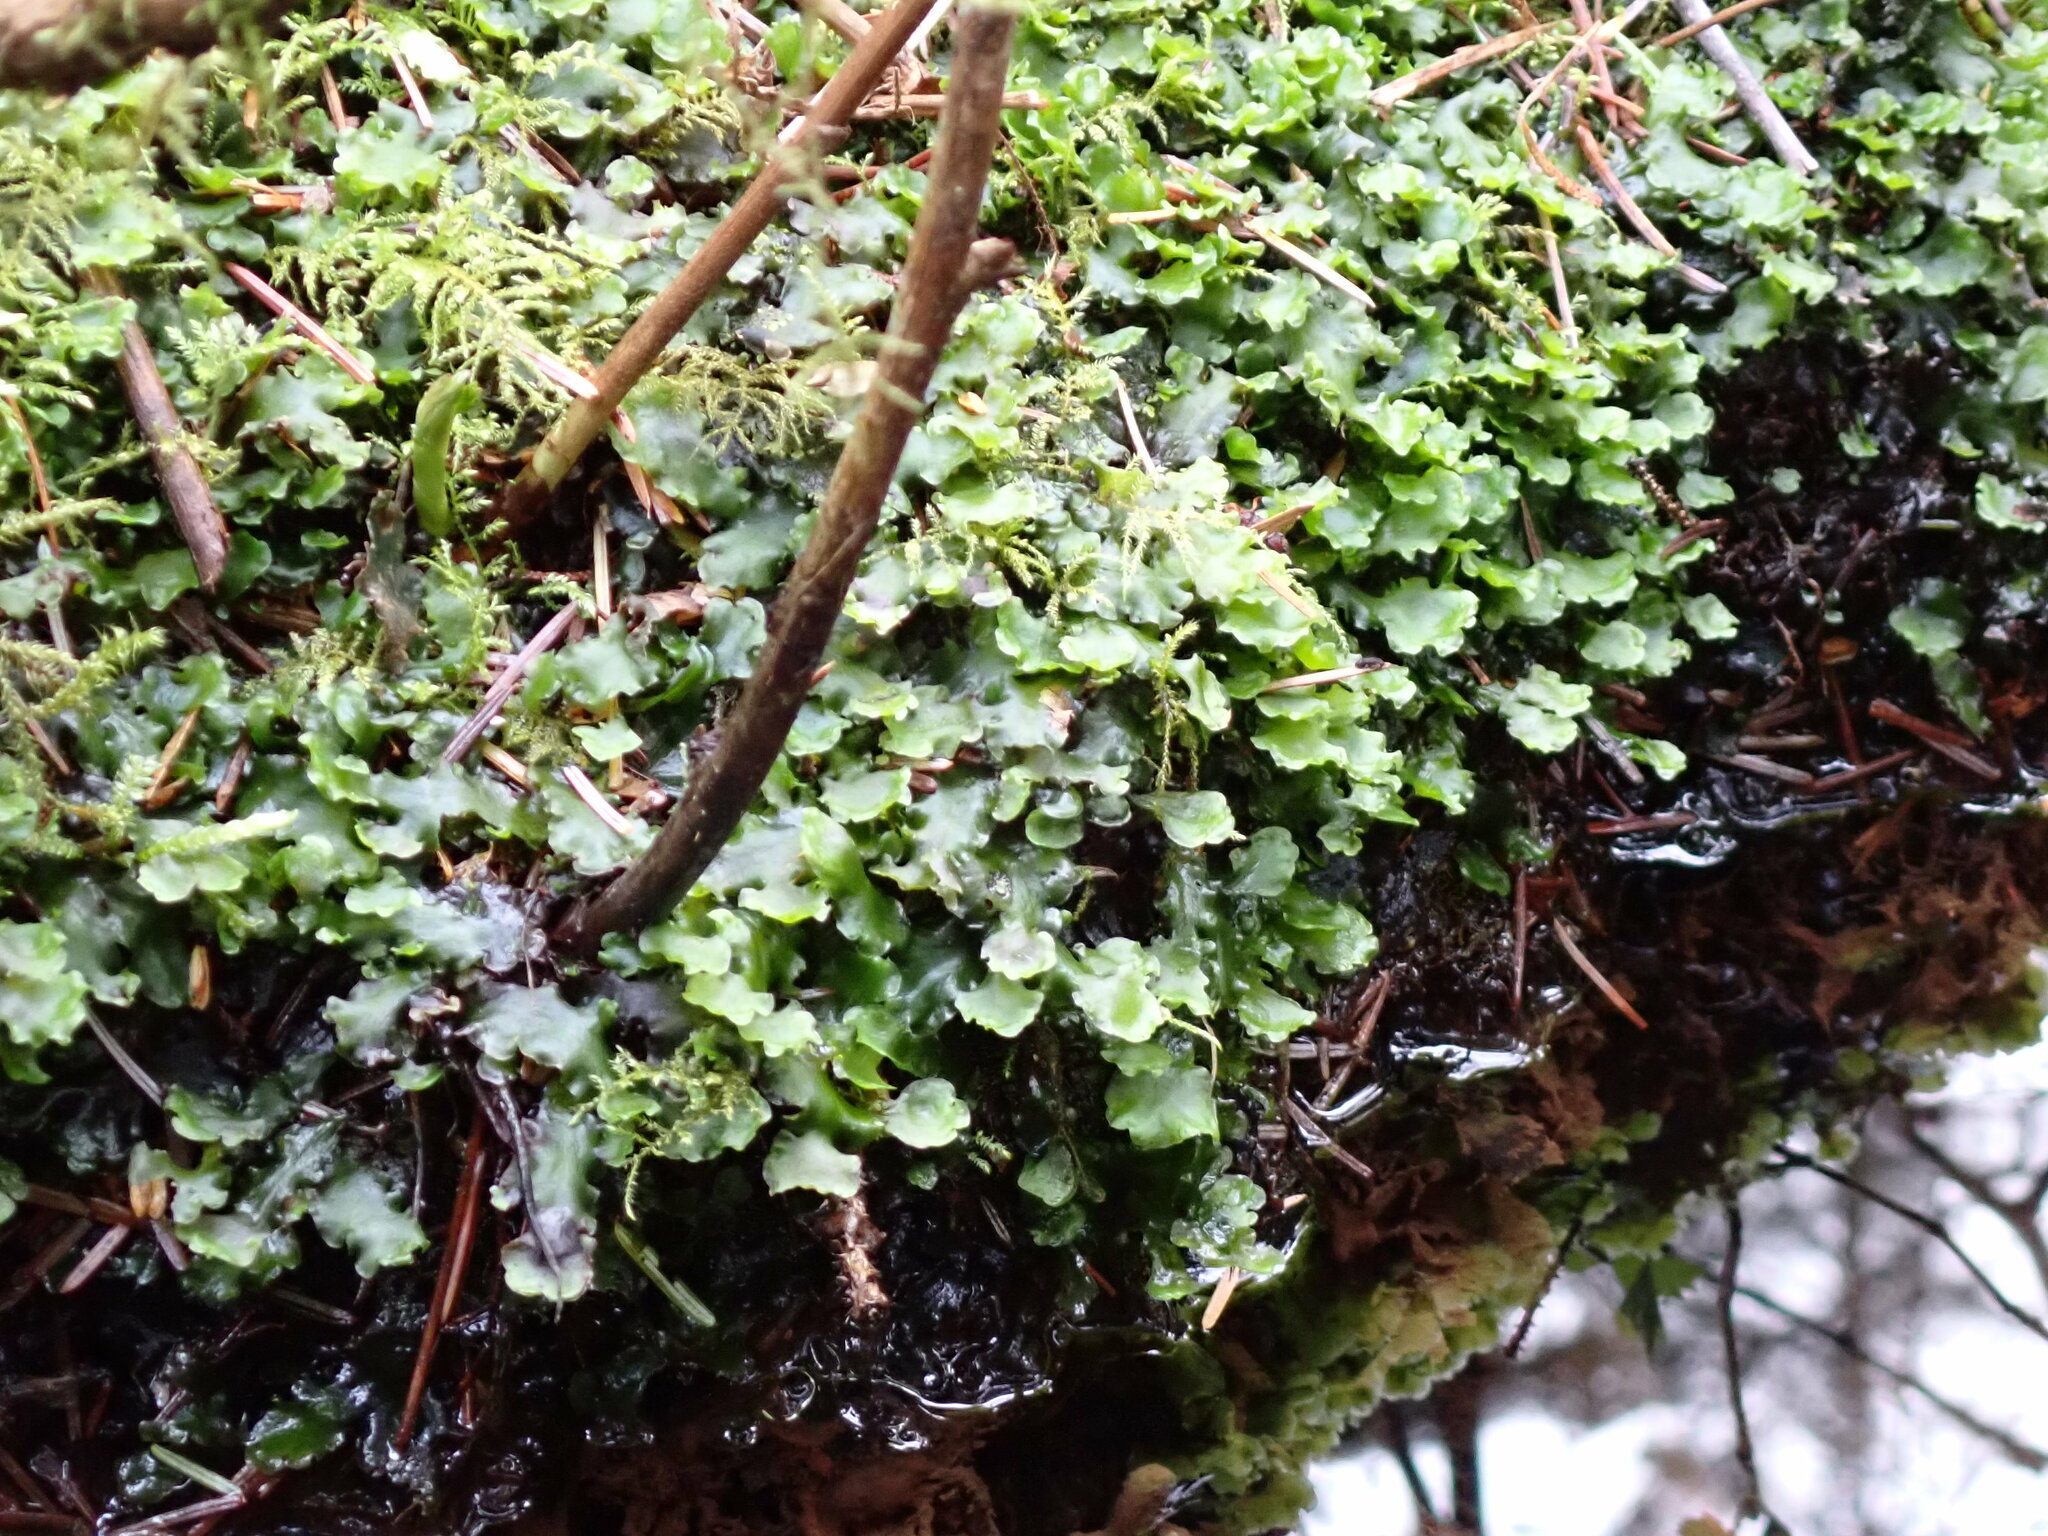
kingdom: Plantae
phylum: Marchantiophyta
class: Jungermanniopsida
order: Pelliales
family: Pelliaceae
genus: Pellia
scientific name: Pellia neesiana
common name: Nees  pellia
